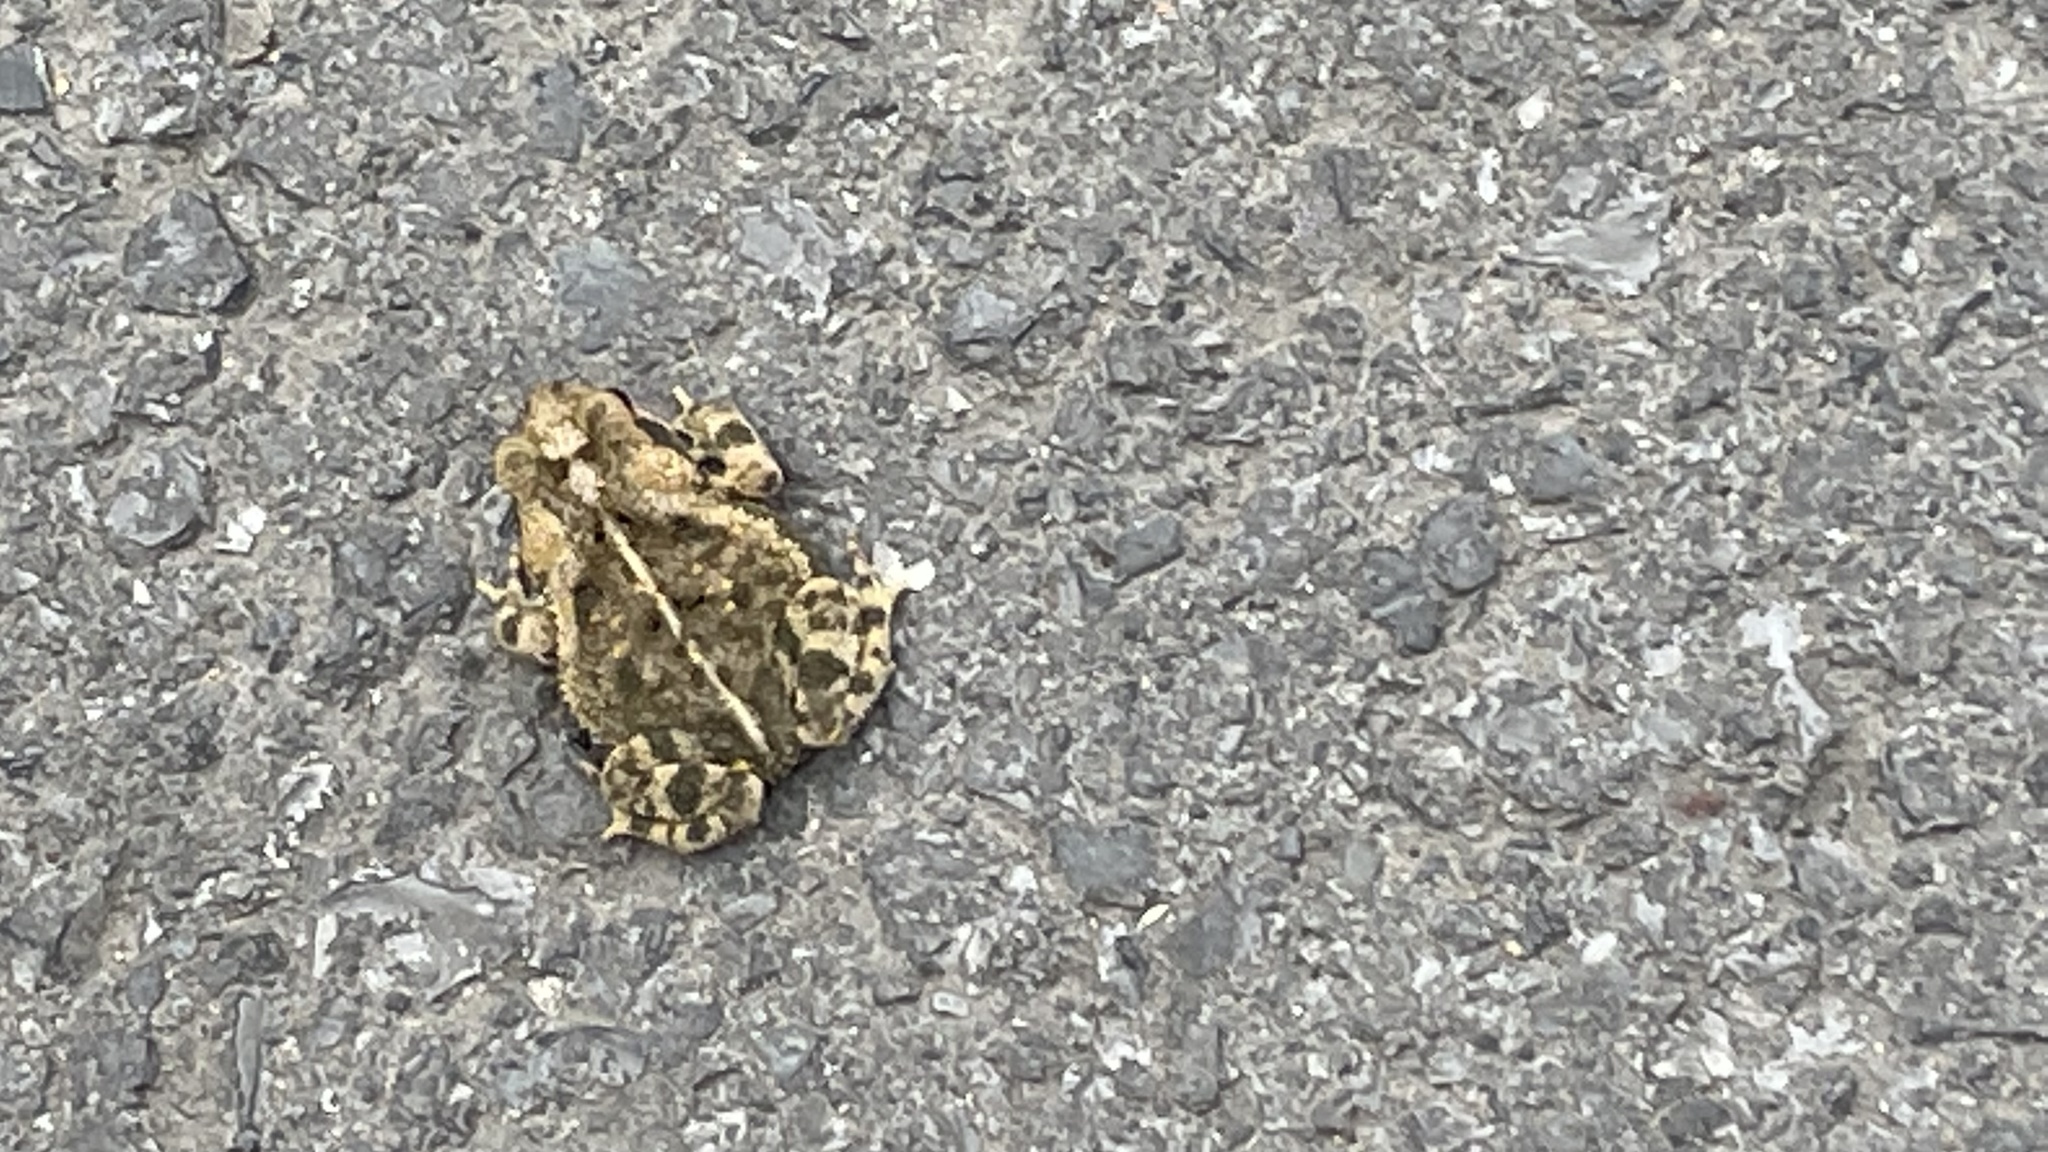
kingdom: Animalia
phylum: Chordata
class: Amphibia
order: Anura
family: Bufonidae
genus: Incilius
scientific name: Incilius nebulifer
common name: Gulf coast toad
